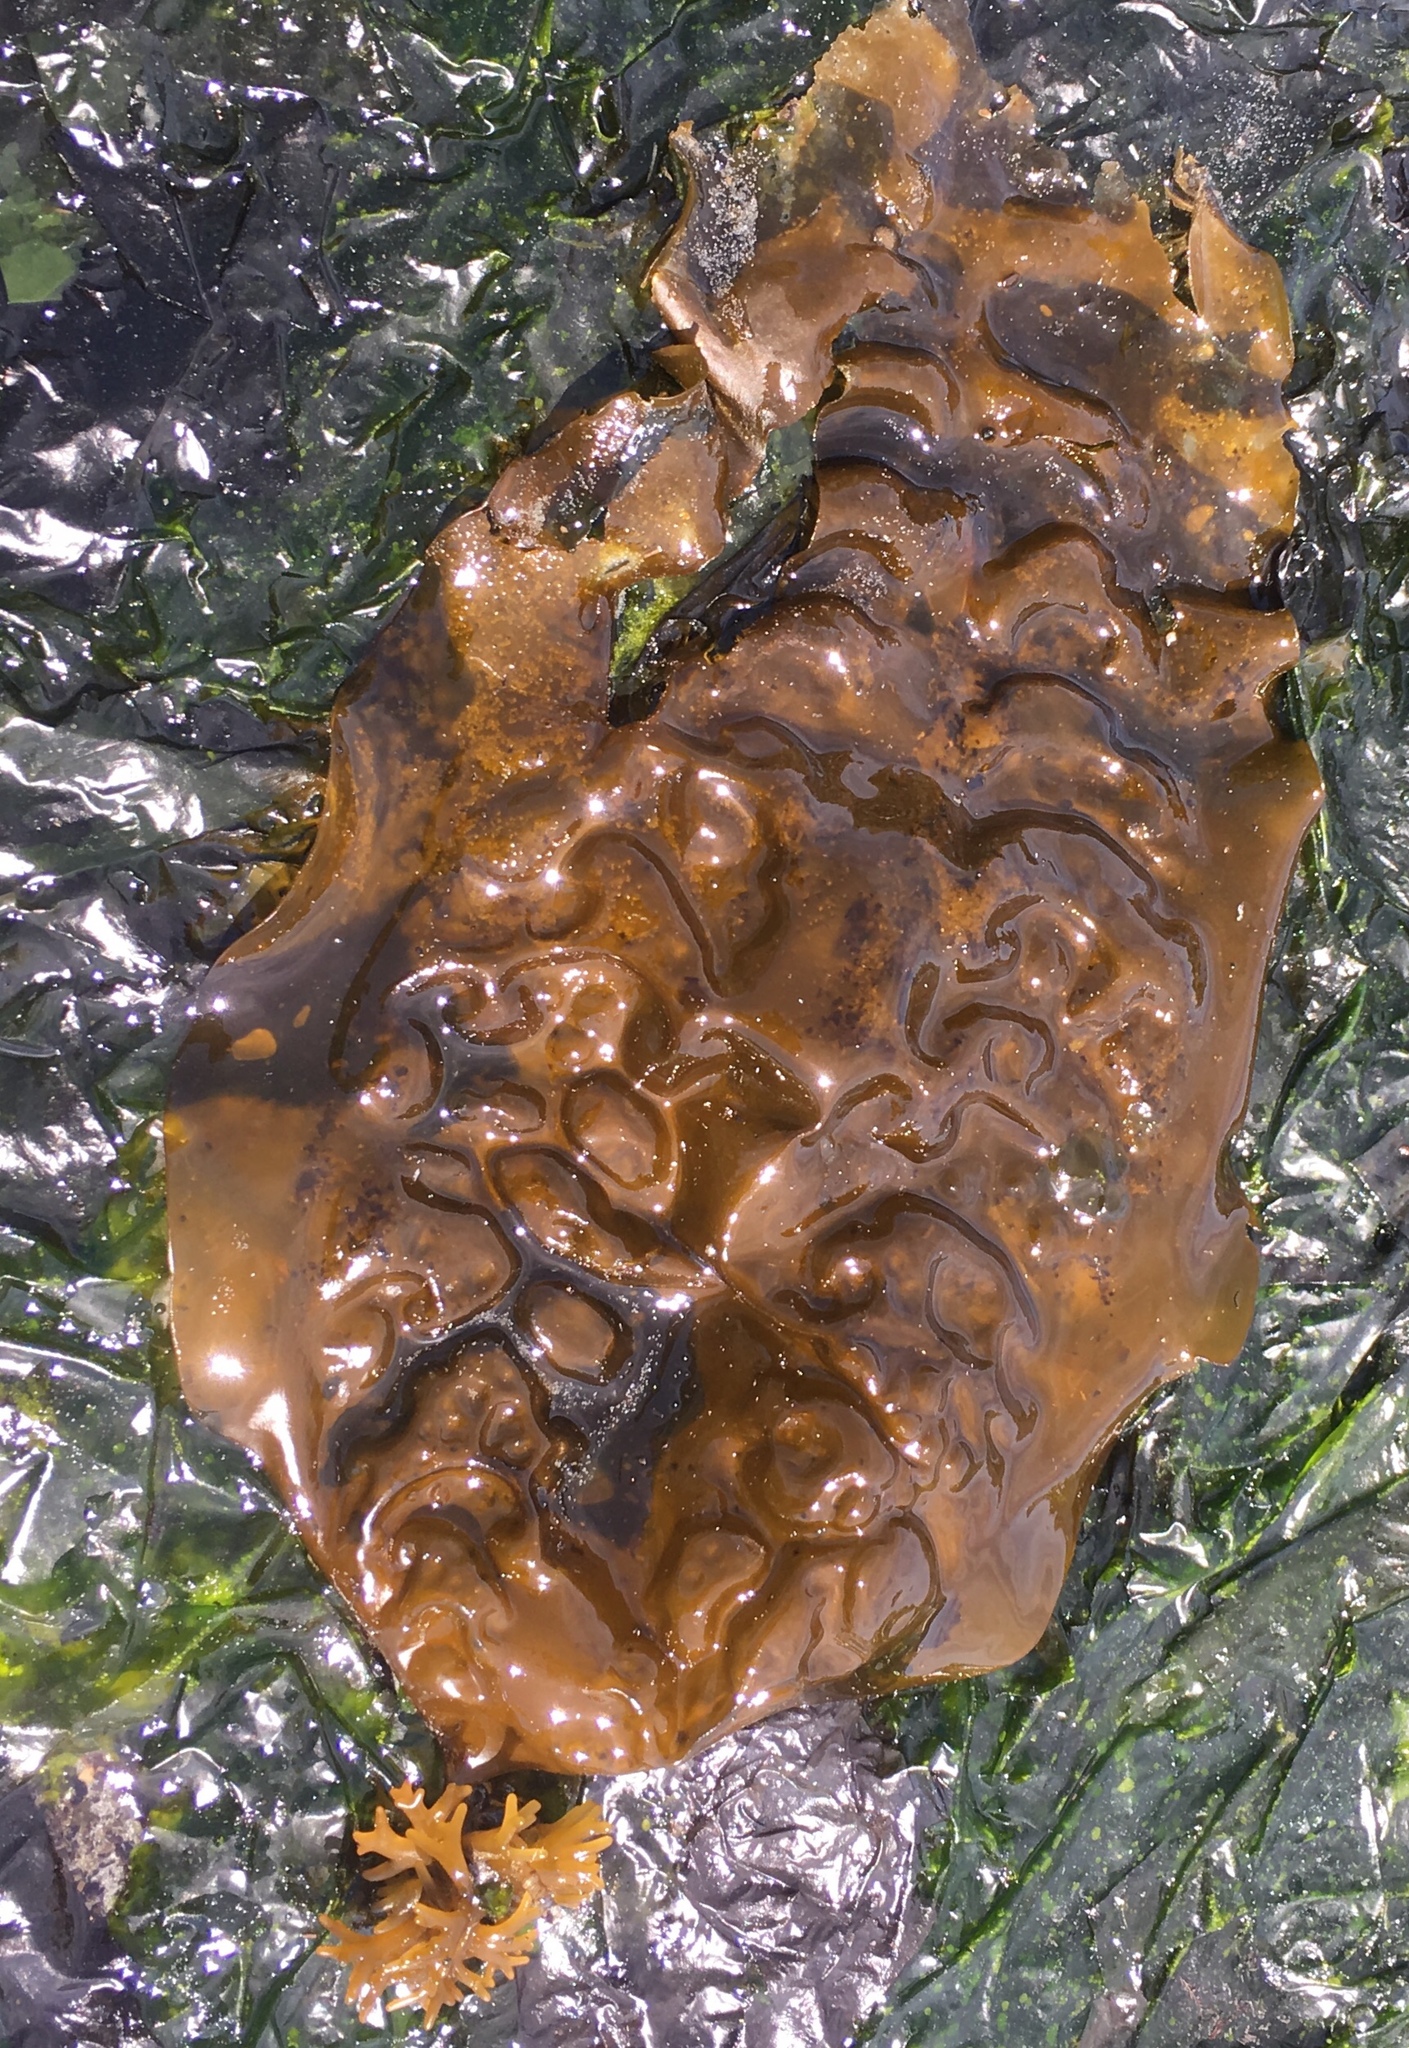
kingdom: Chromista
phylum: Ochrophyta
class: Phaeophyceae
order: Laminariales
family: Laminariaceae
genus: Saccharina
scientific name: Saccharina latissima
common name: Poor man's weather glass
